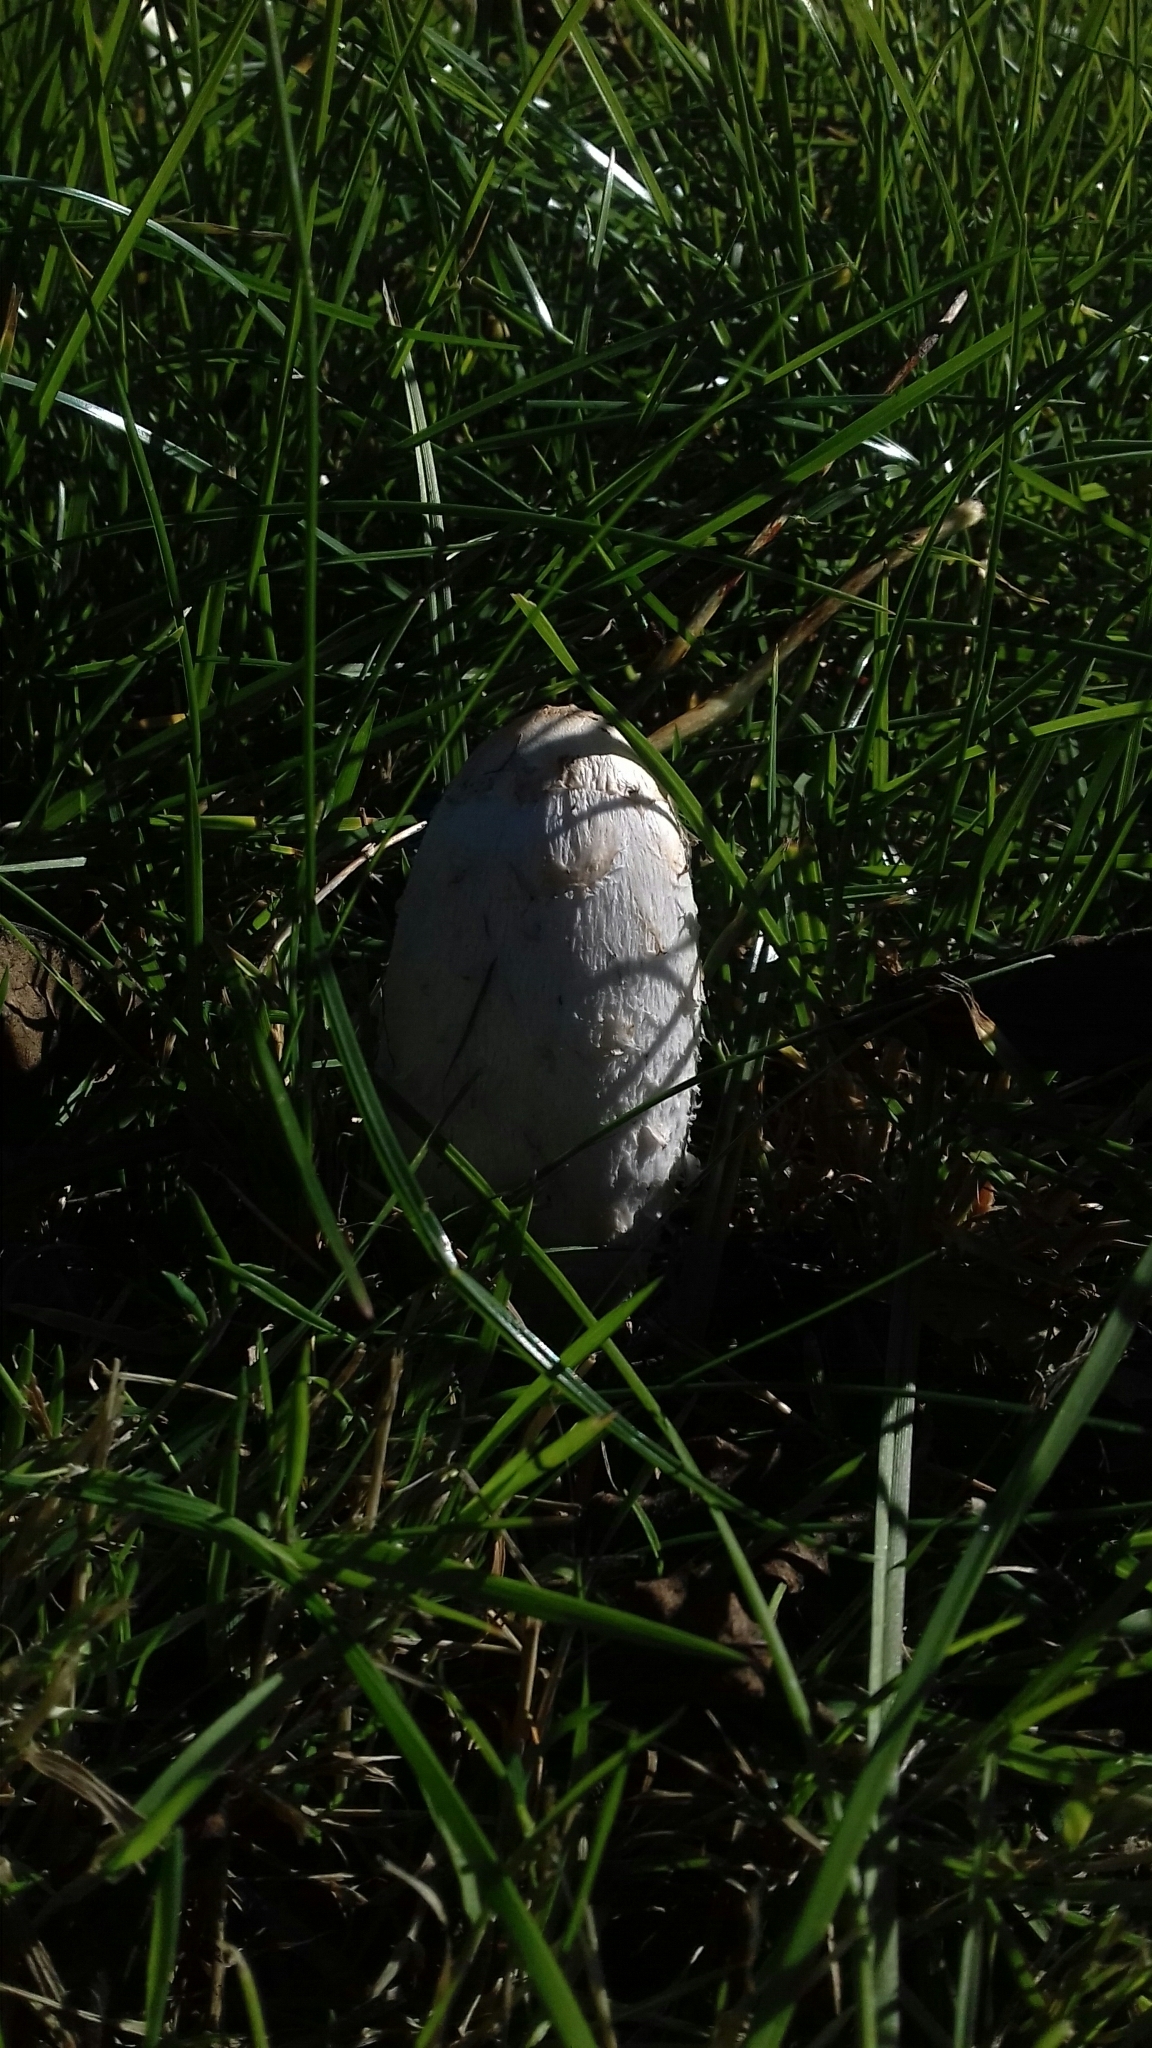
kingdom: Fungi
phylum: Basidiomycota
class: Agaricomycetes
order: Agaricales
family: Agaricaceae
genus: Coprinus
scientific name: Coprinus comatus
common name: Lawyer's wig
